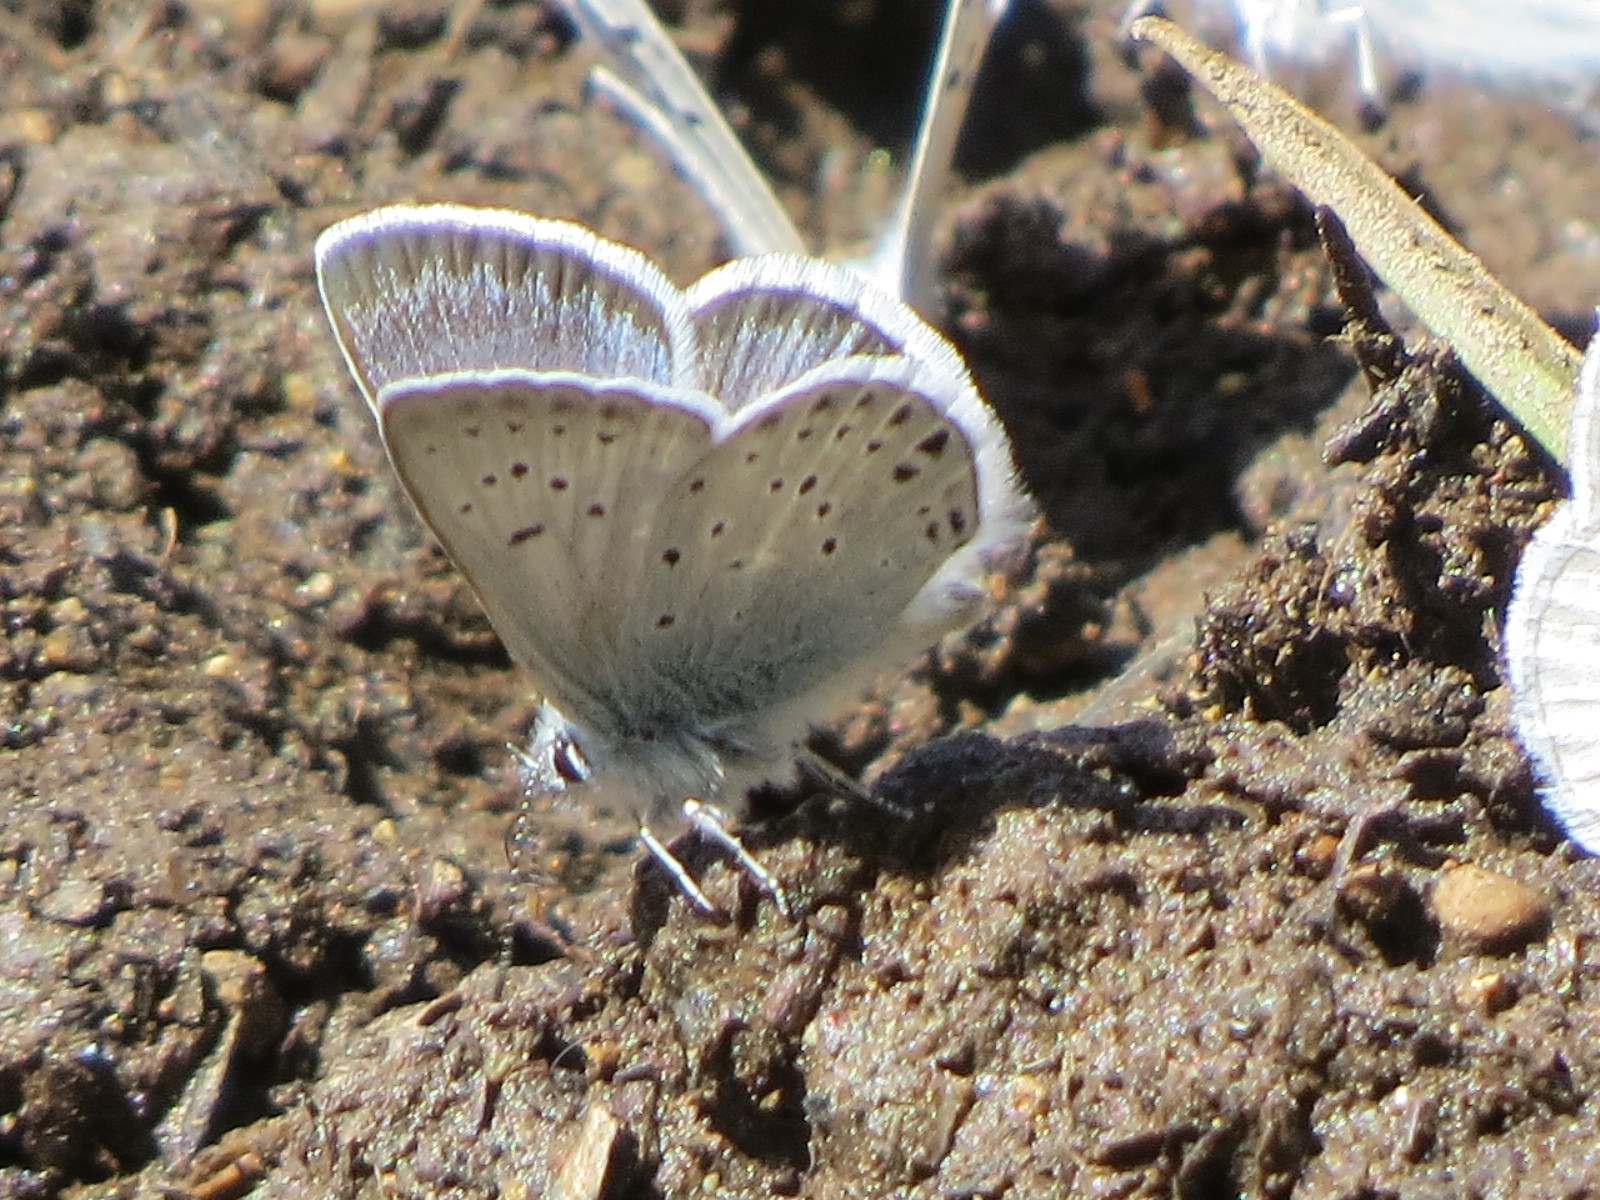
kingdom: Animalia
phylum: Arthropoda
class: Insecta
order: Lepidoptera
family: Lycaenidae
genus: Icaricia
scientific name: Icaricia saepiolus
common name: Greenish blue
